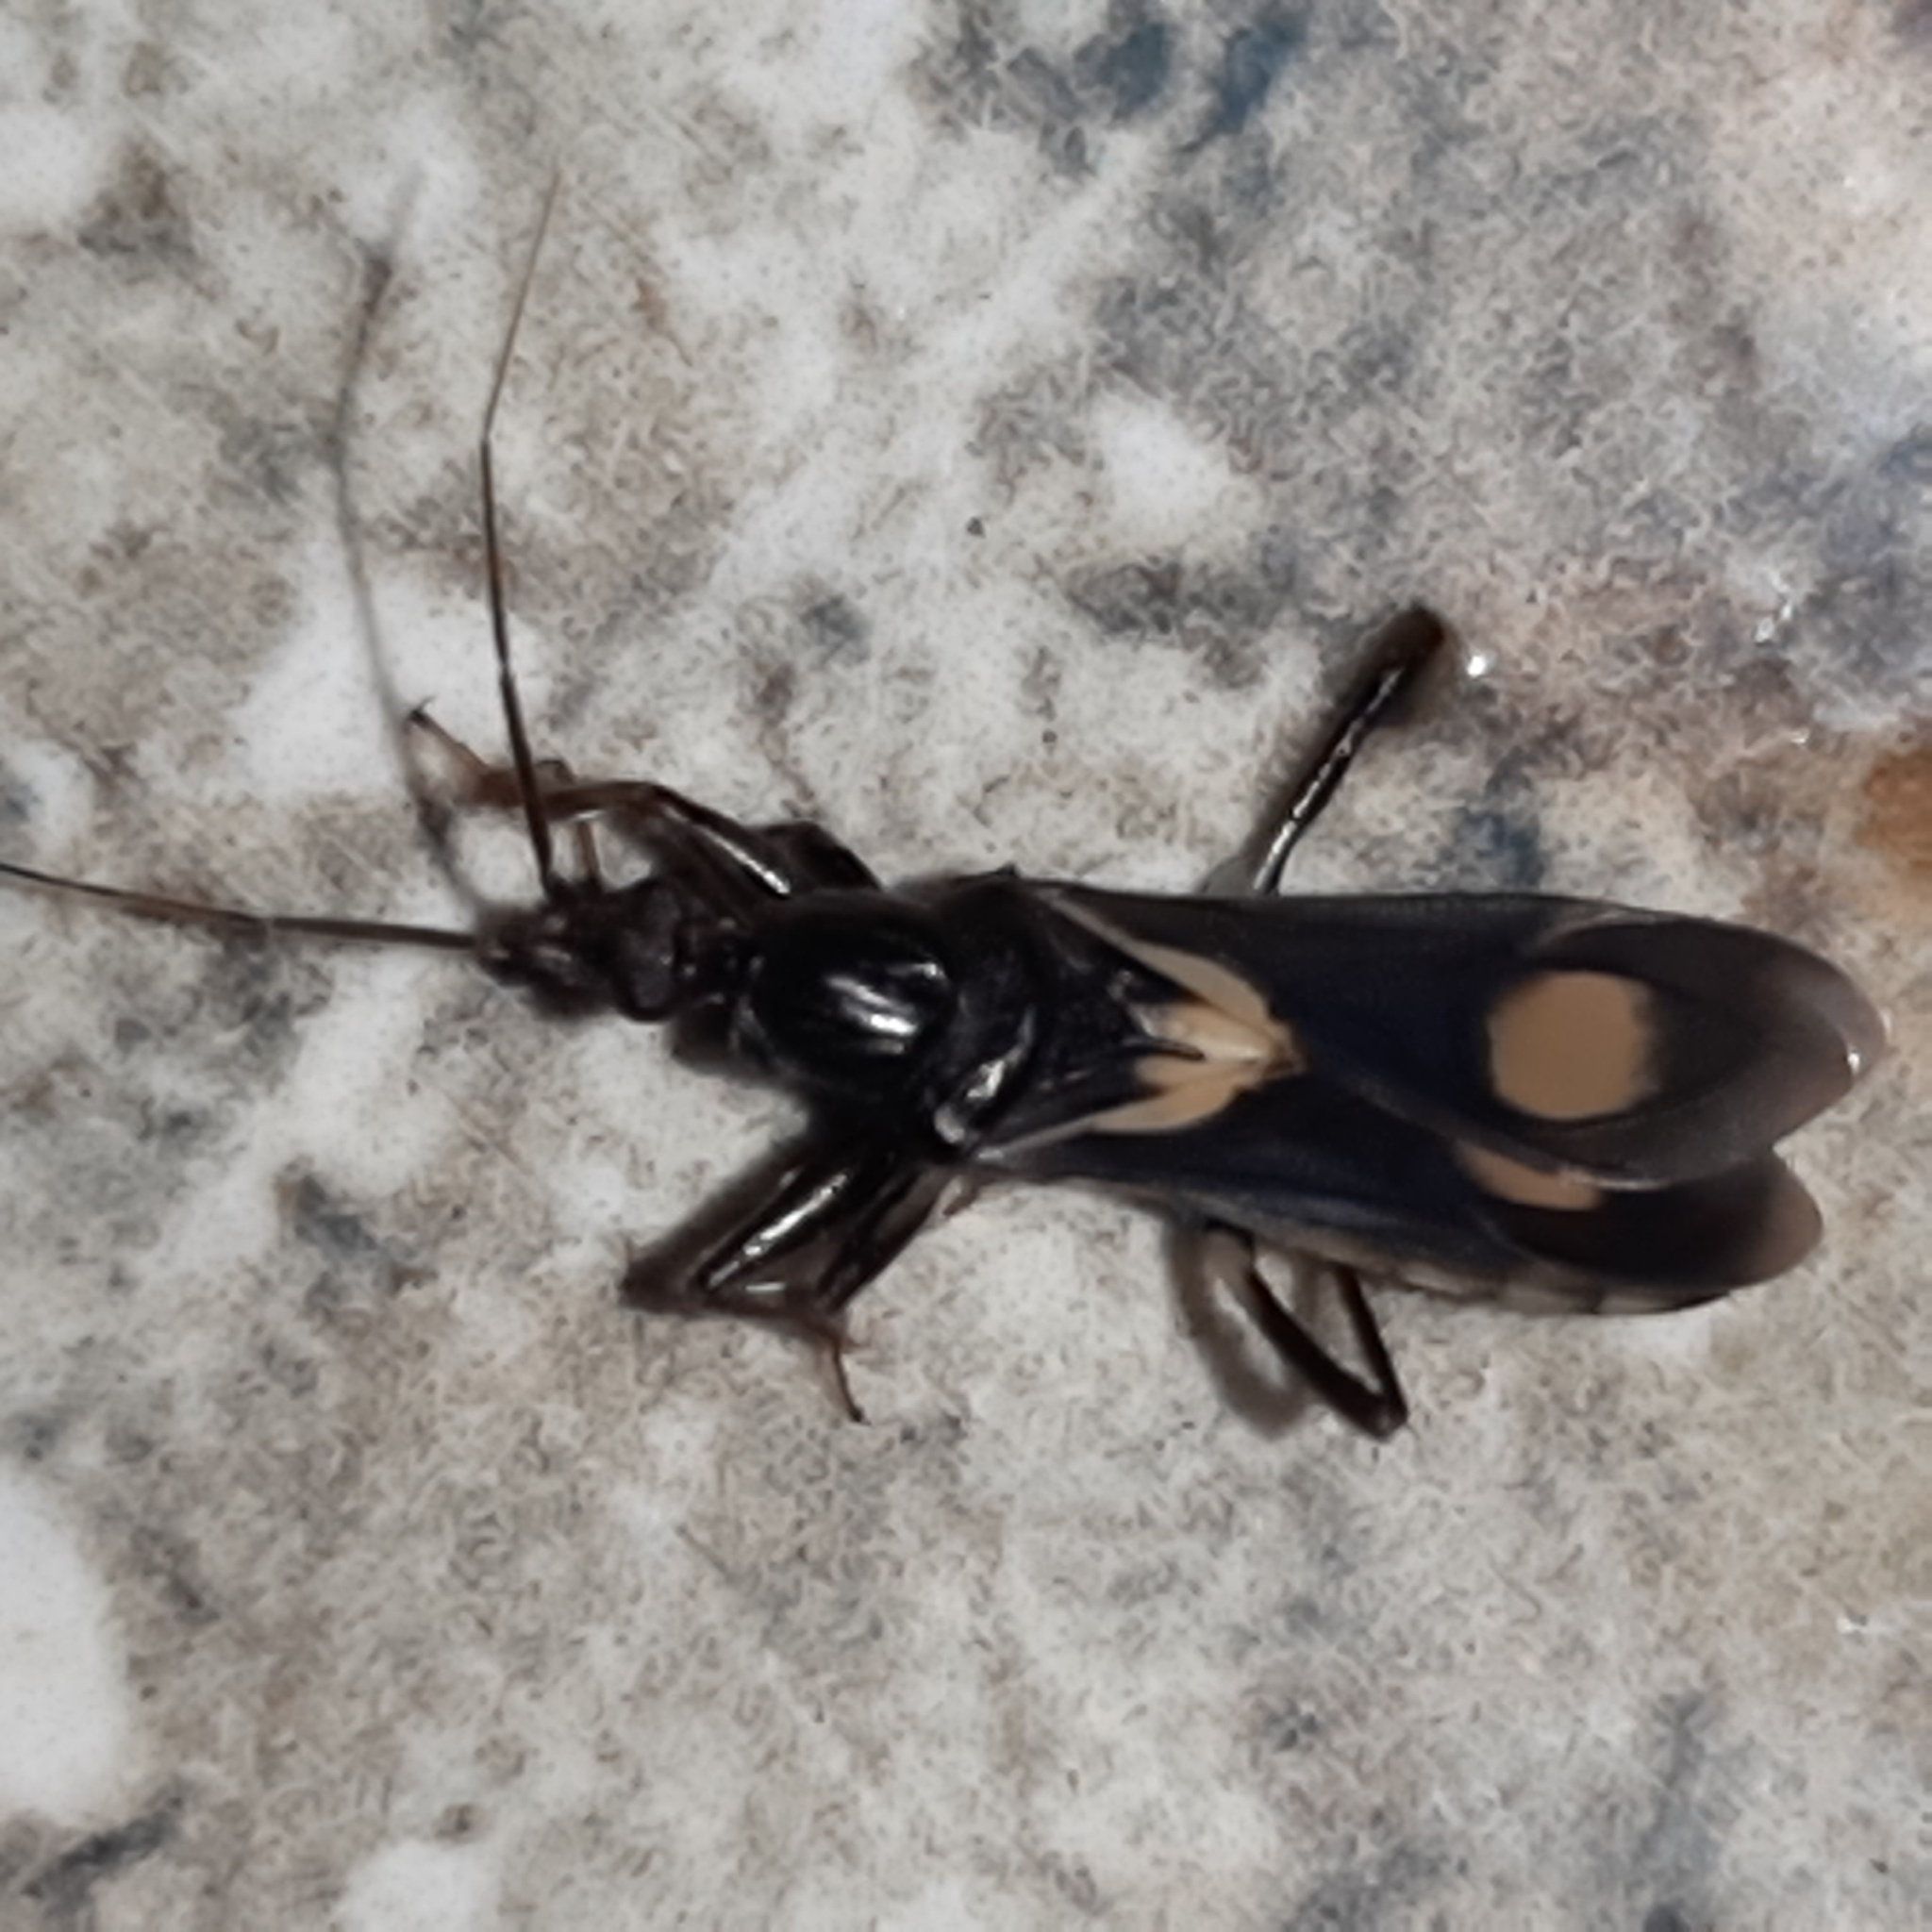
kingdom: Animalia
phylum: Arthropoda
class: Insecta
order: Hemiptera
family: Reduviidae
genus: Rasahus
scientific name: Rasahus hamatus
